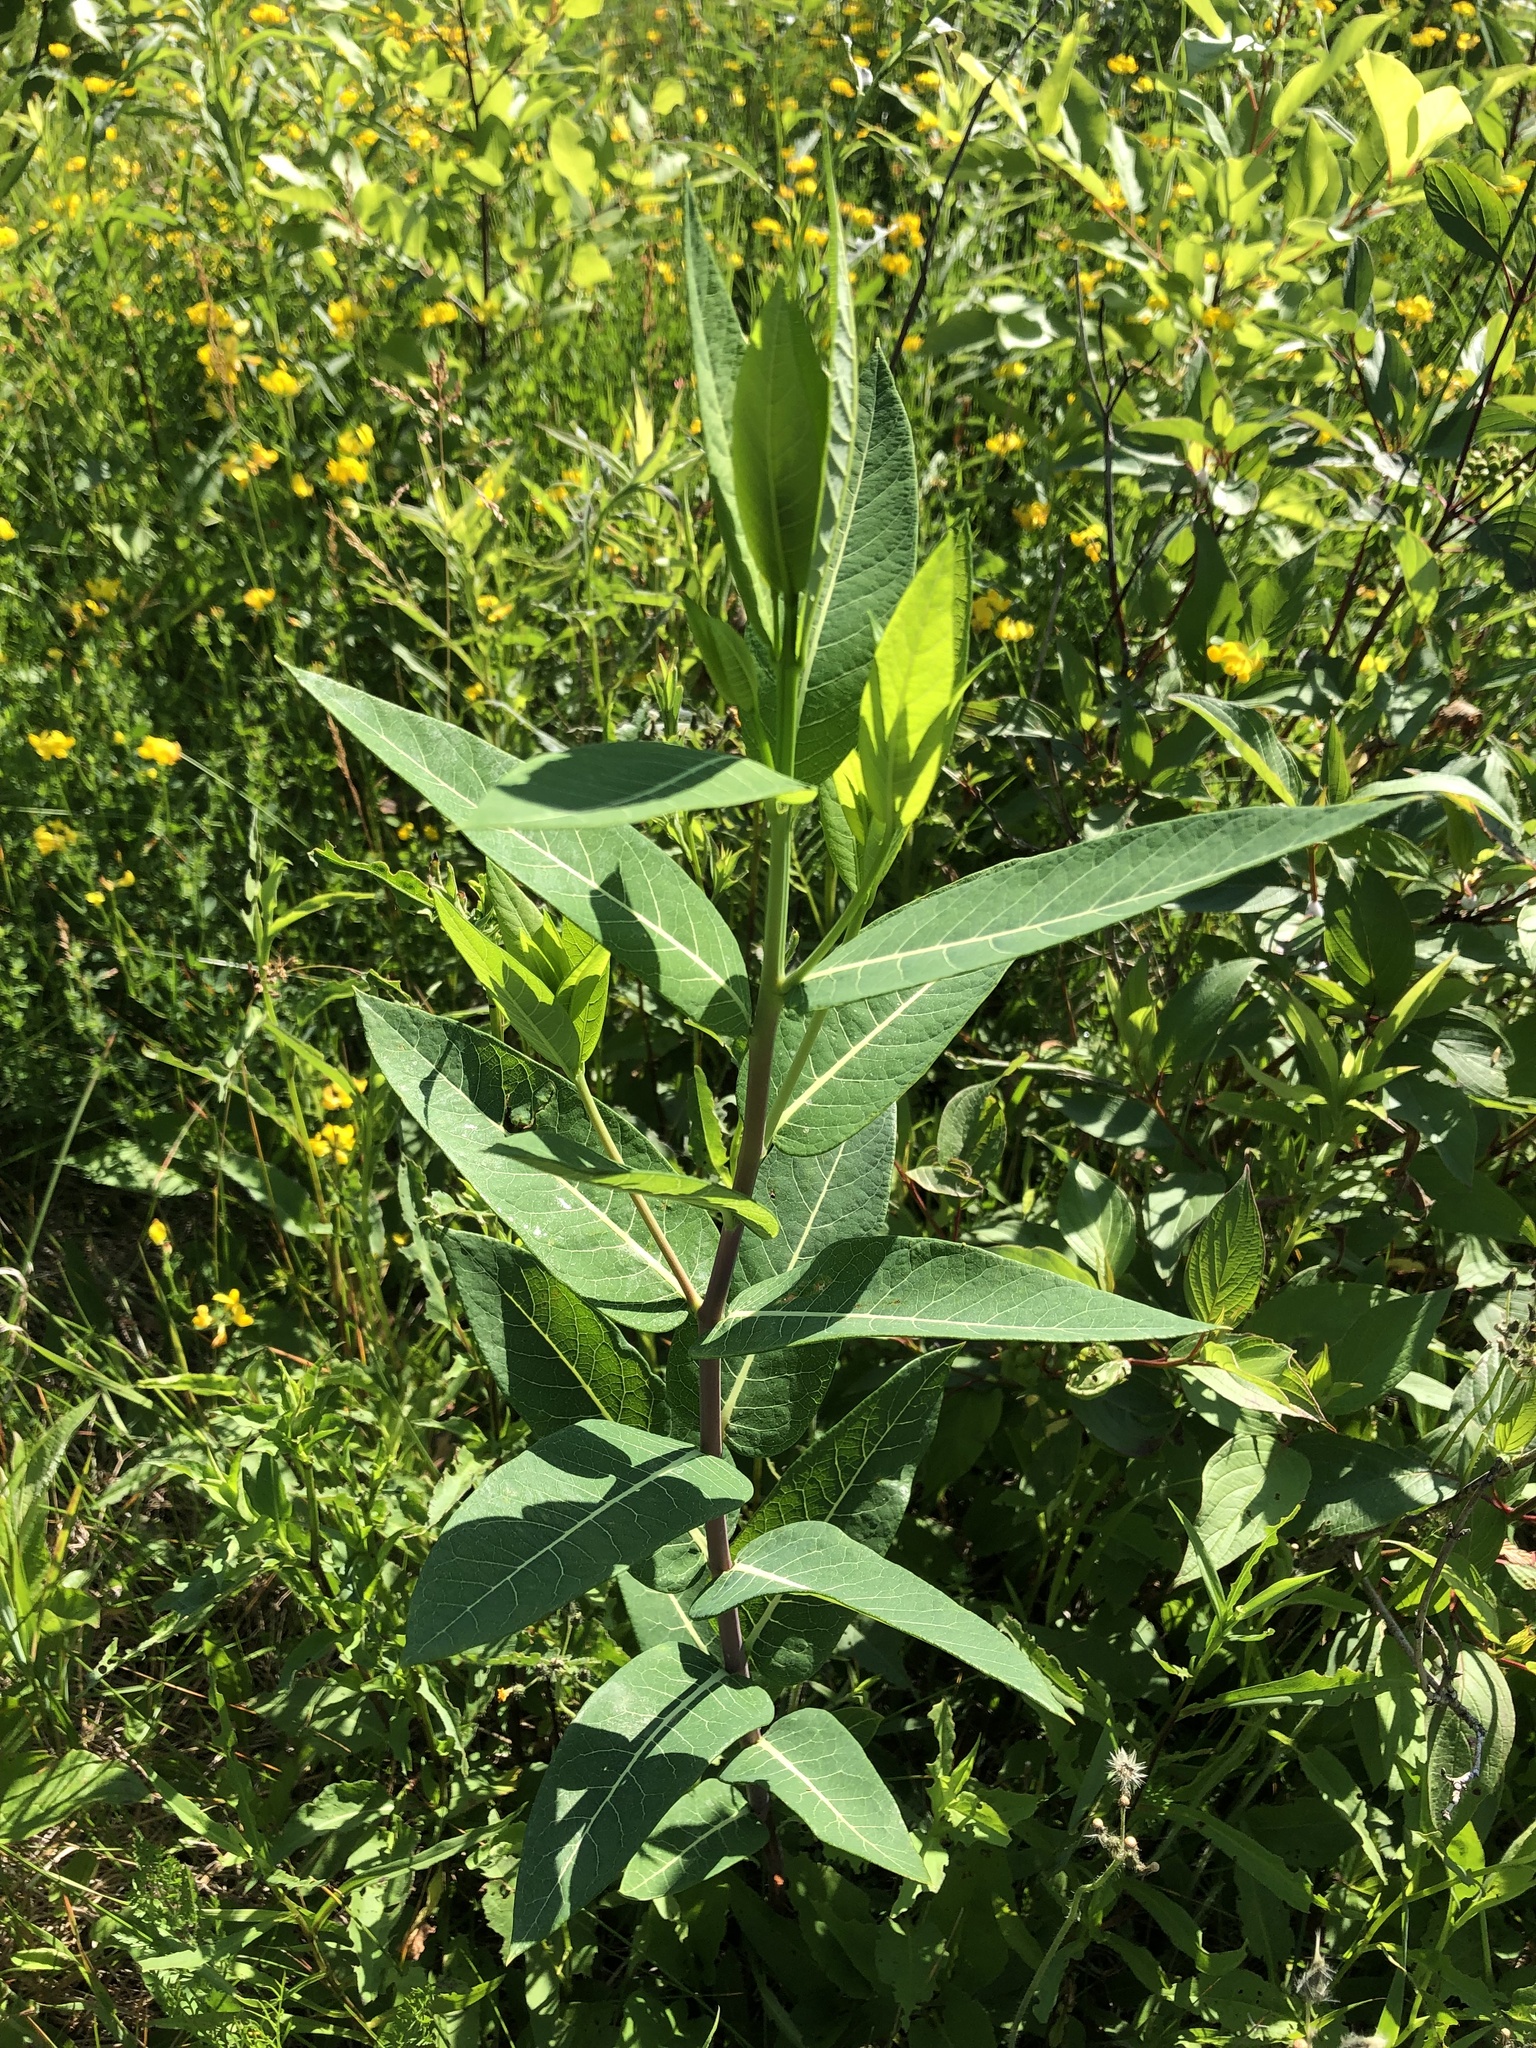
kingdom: Plantae
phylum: Tracheophyta
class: Magnoliopsida
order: Gentianales
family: Apocynaceae
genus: Apocynum
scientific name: Apocynum cannabinum
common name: Hemp dogbane
